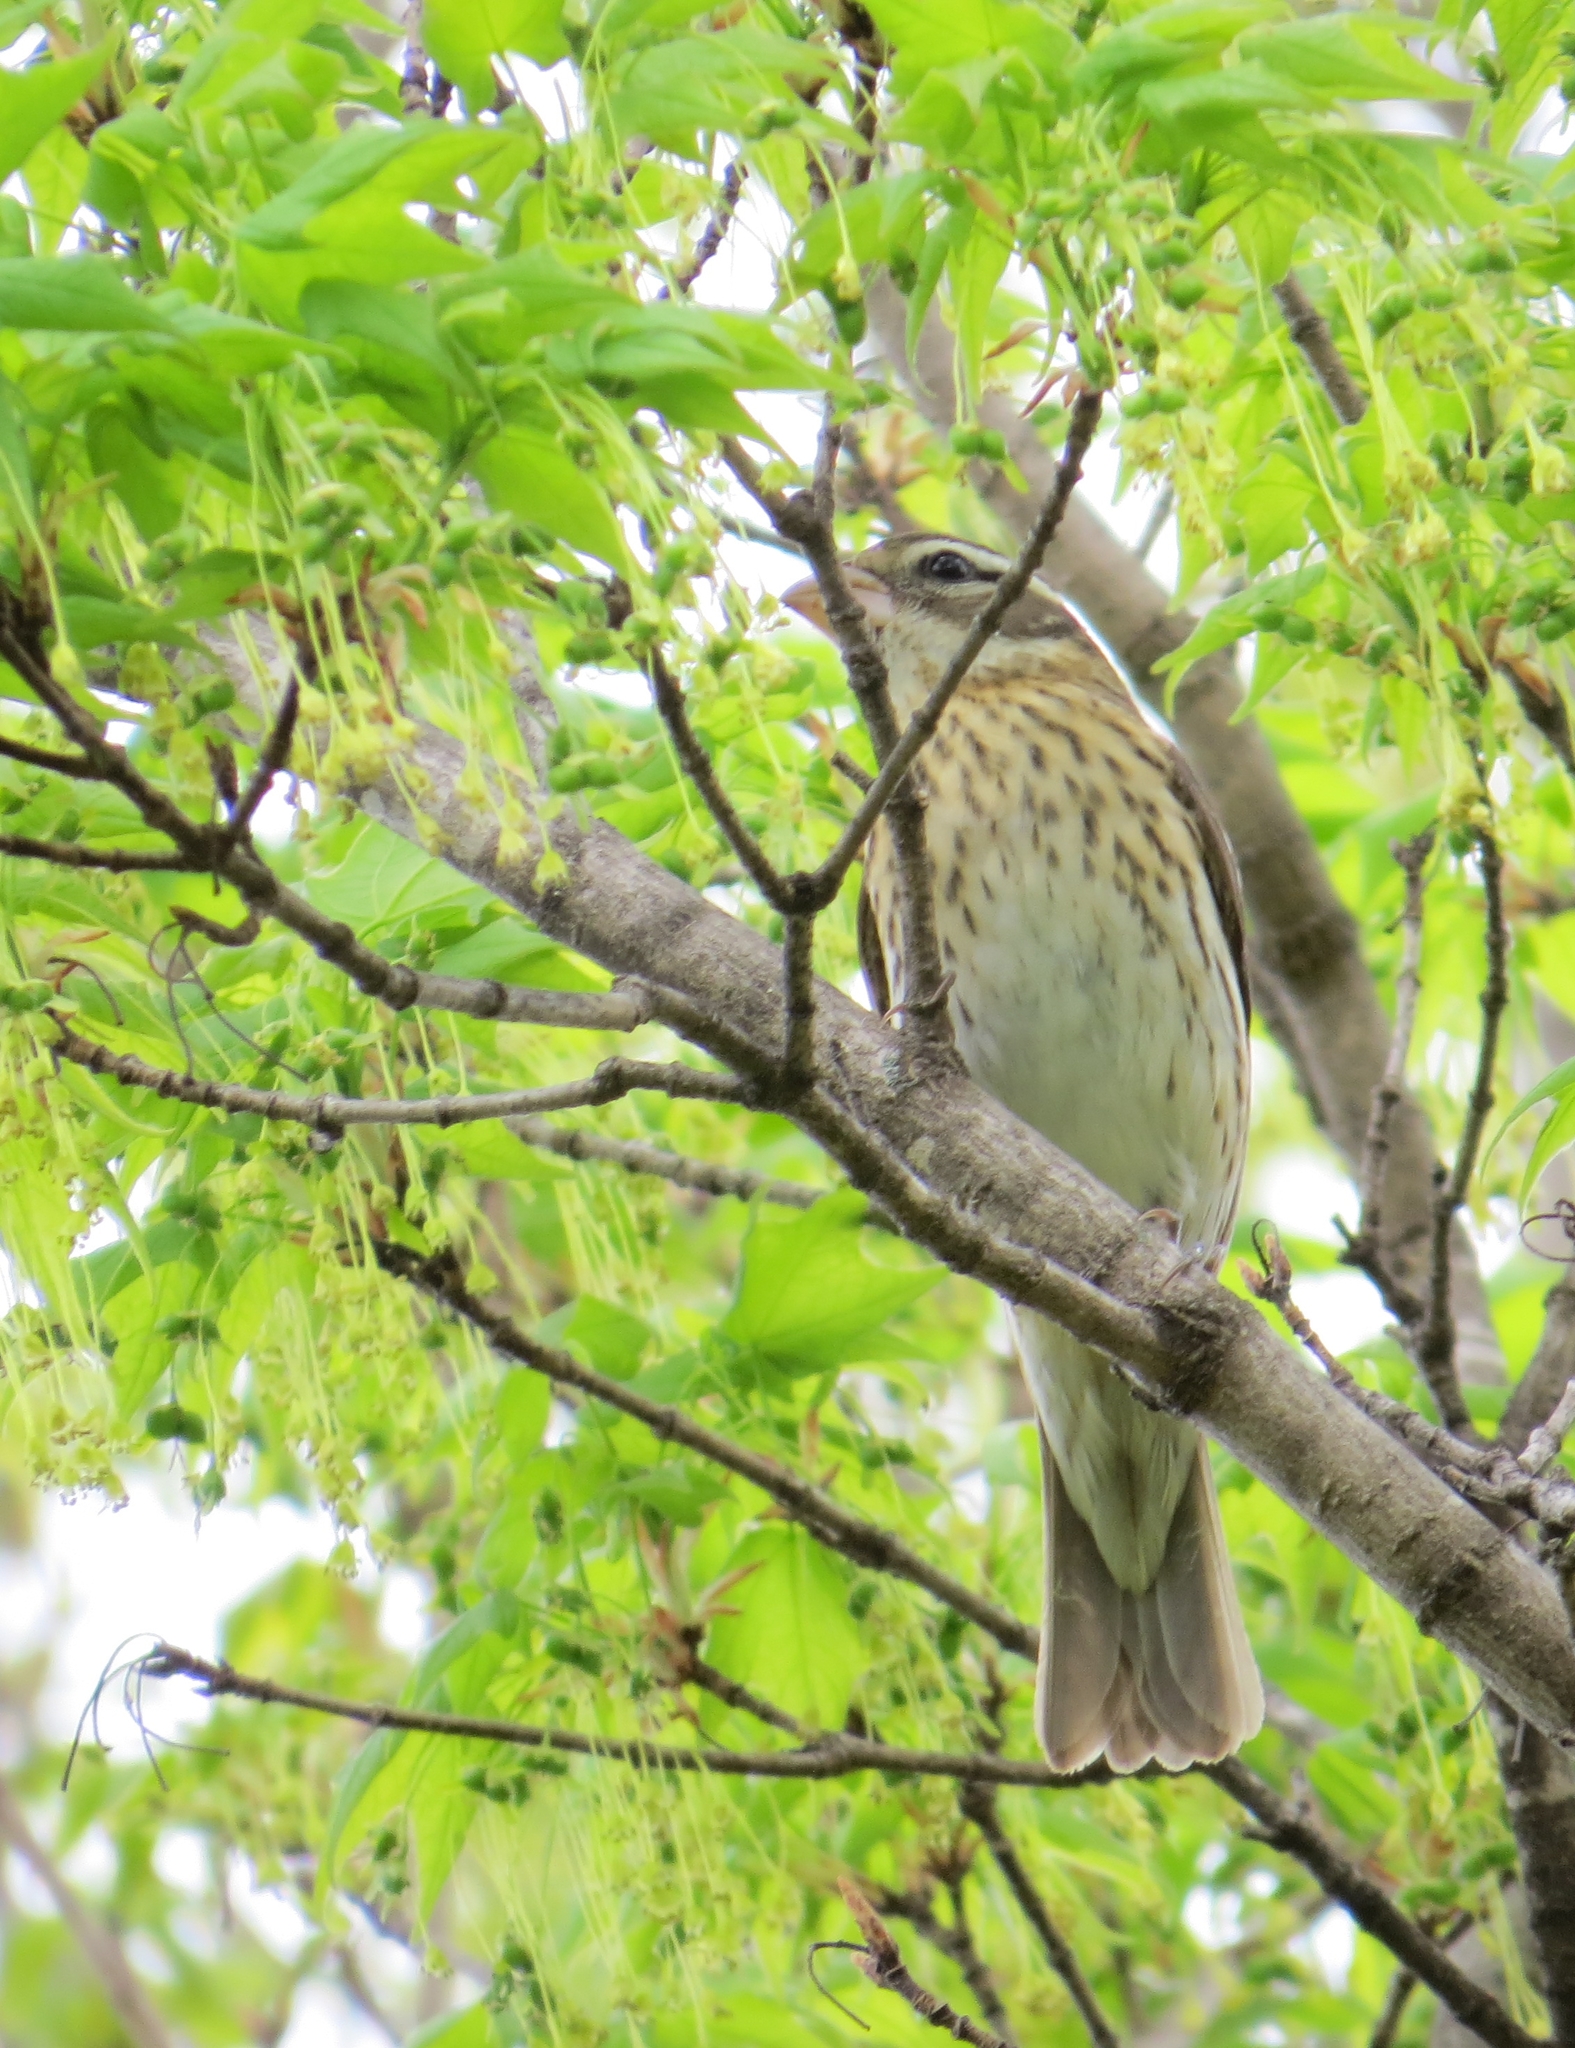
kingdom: Animalia
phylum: Chordata
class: Aves
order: Passeriformes
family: Cardinalidae
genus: Pheucticus
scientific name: Pheucticus ludovicianus
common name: Rose-breasted grosbeak
